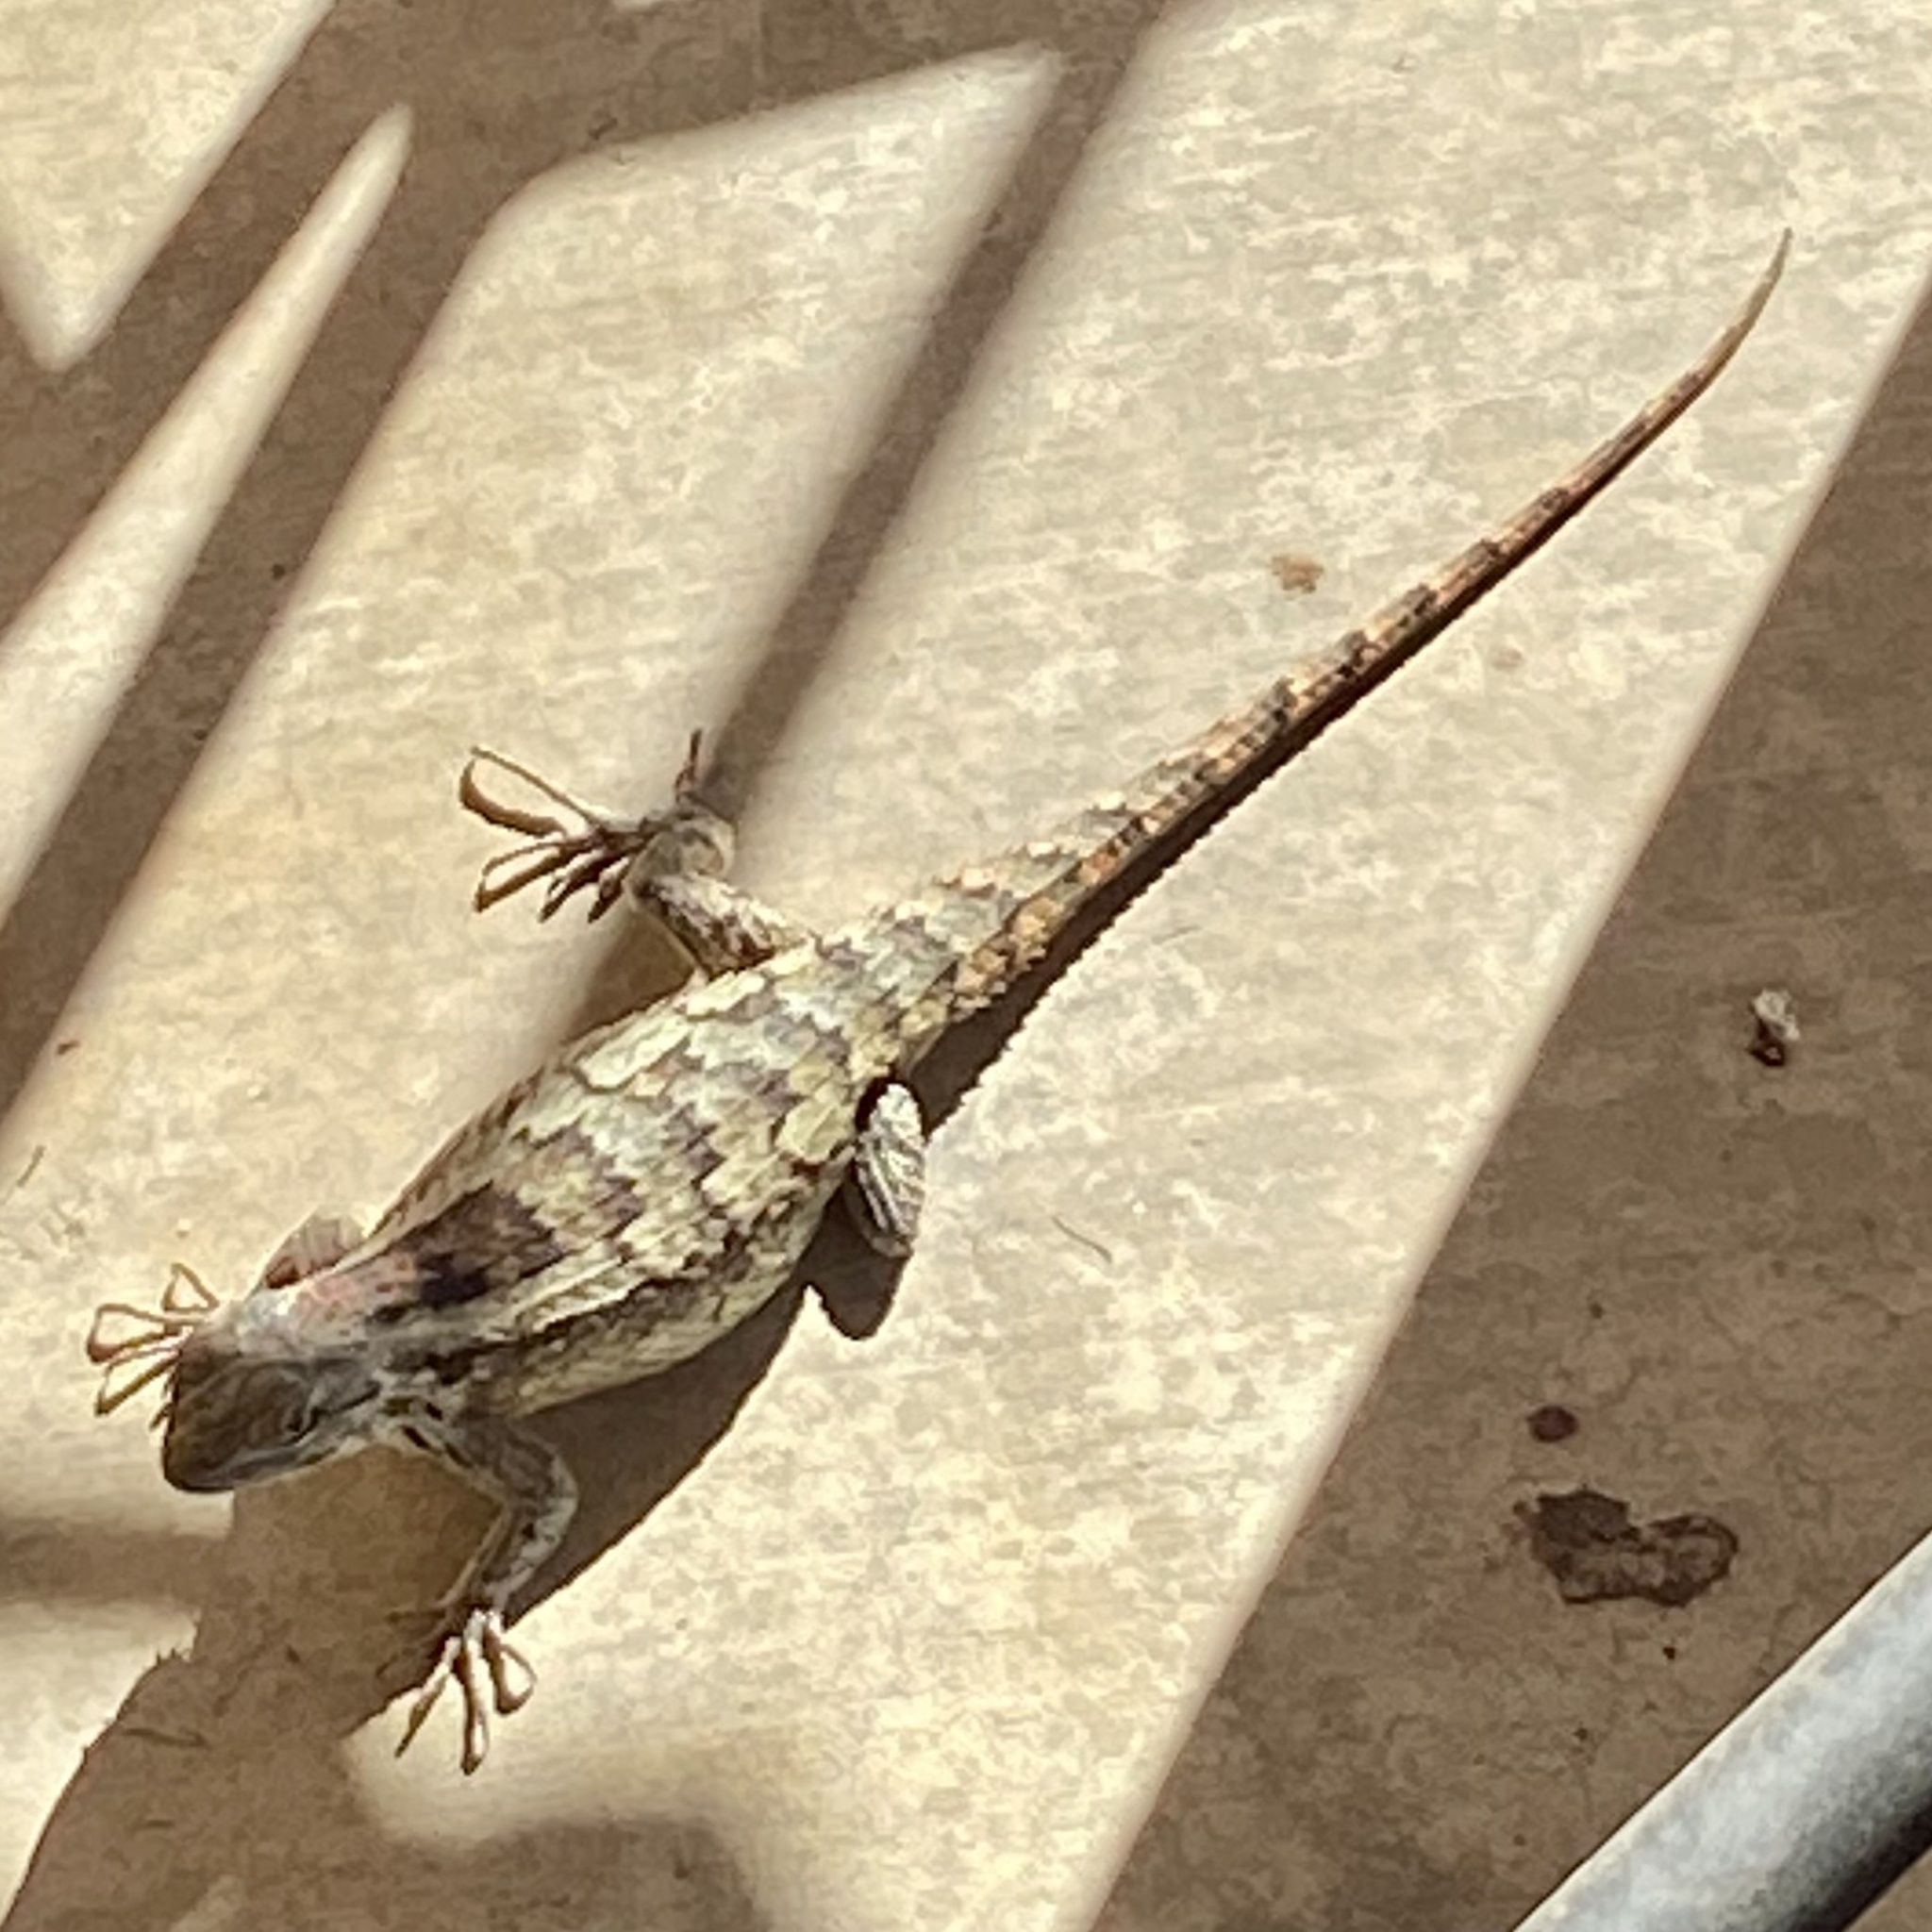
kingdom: Animalia
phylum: Chordata
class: Squamata
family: Phrynosomatidae
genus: Sceloporus
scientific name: Sceloporus olivaceus
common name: Texas spiny lizard
